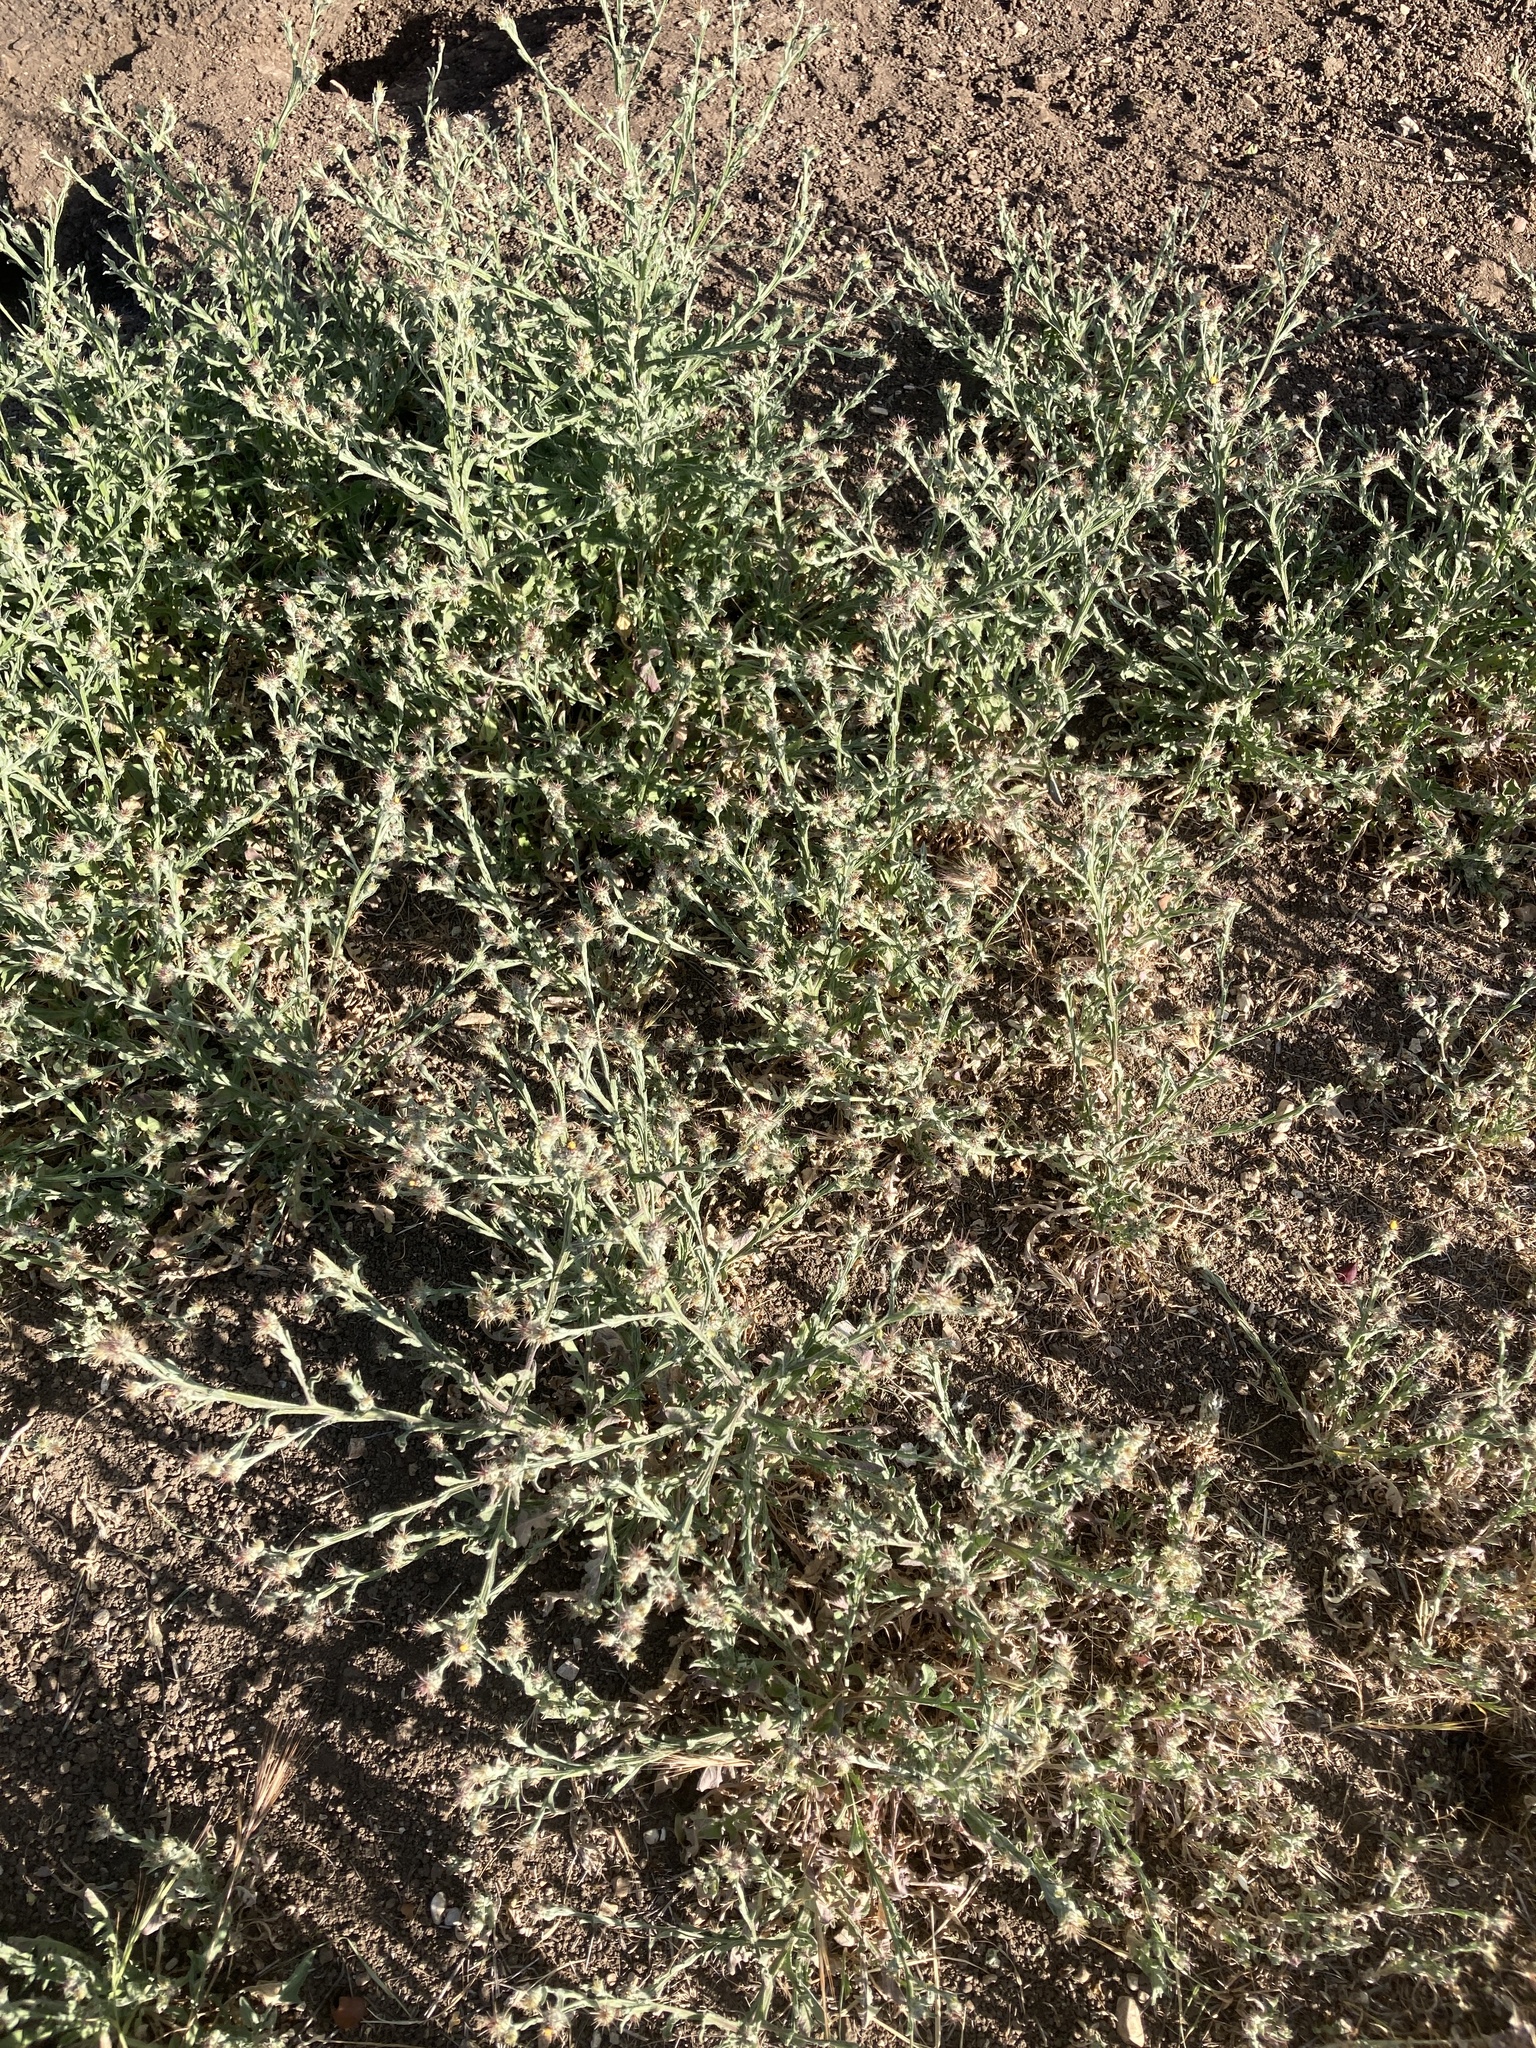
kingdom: Plantae
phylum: Tracheophyta
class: Magnoliopsida
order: Asterales
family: Asteraceae
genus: Centaurea
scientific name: Centaurea melitensis
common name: Maltese star-thistle
